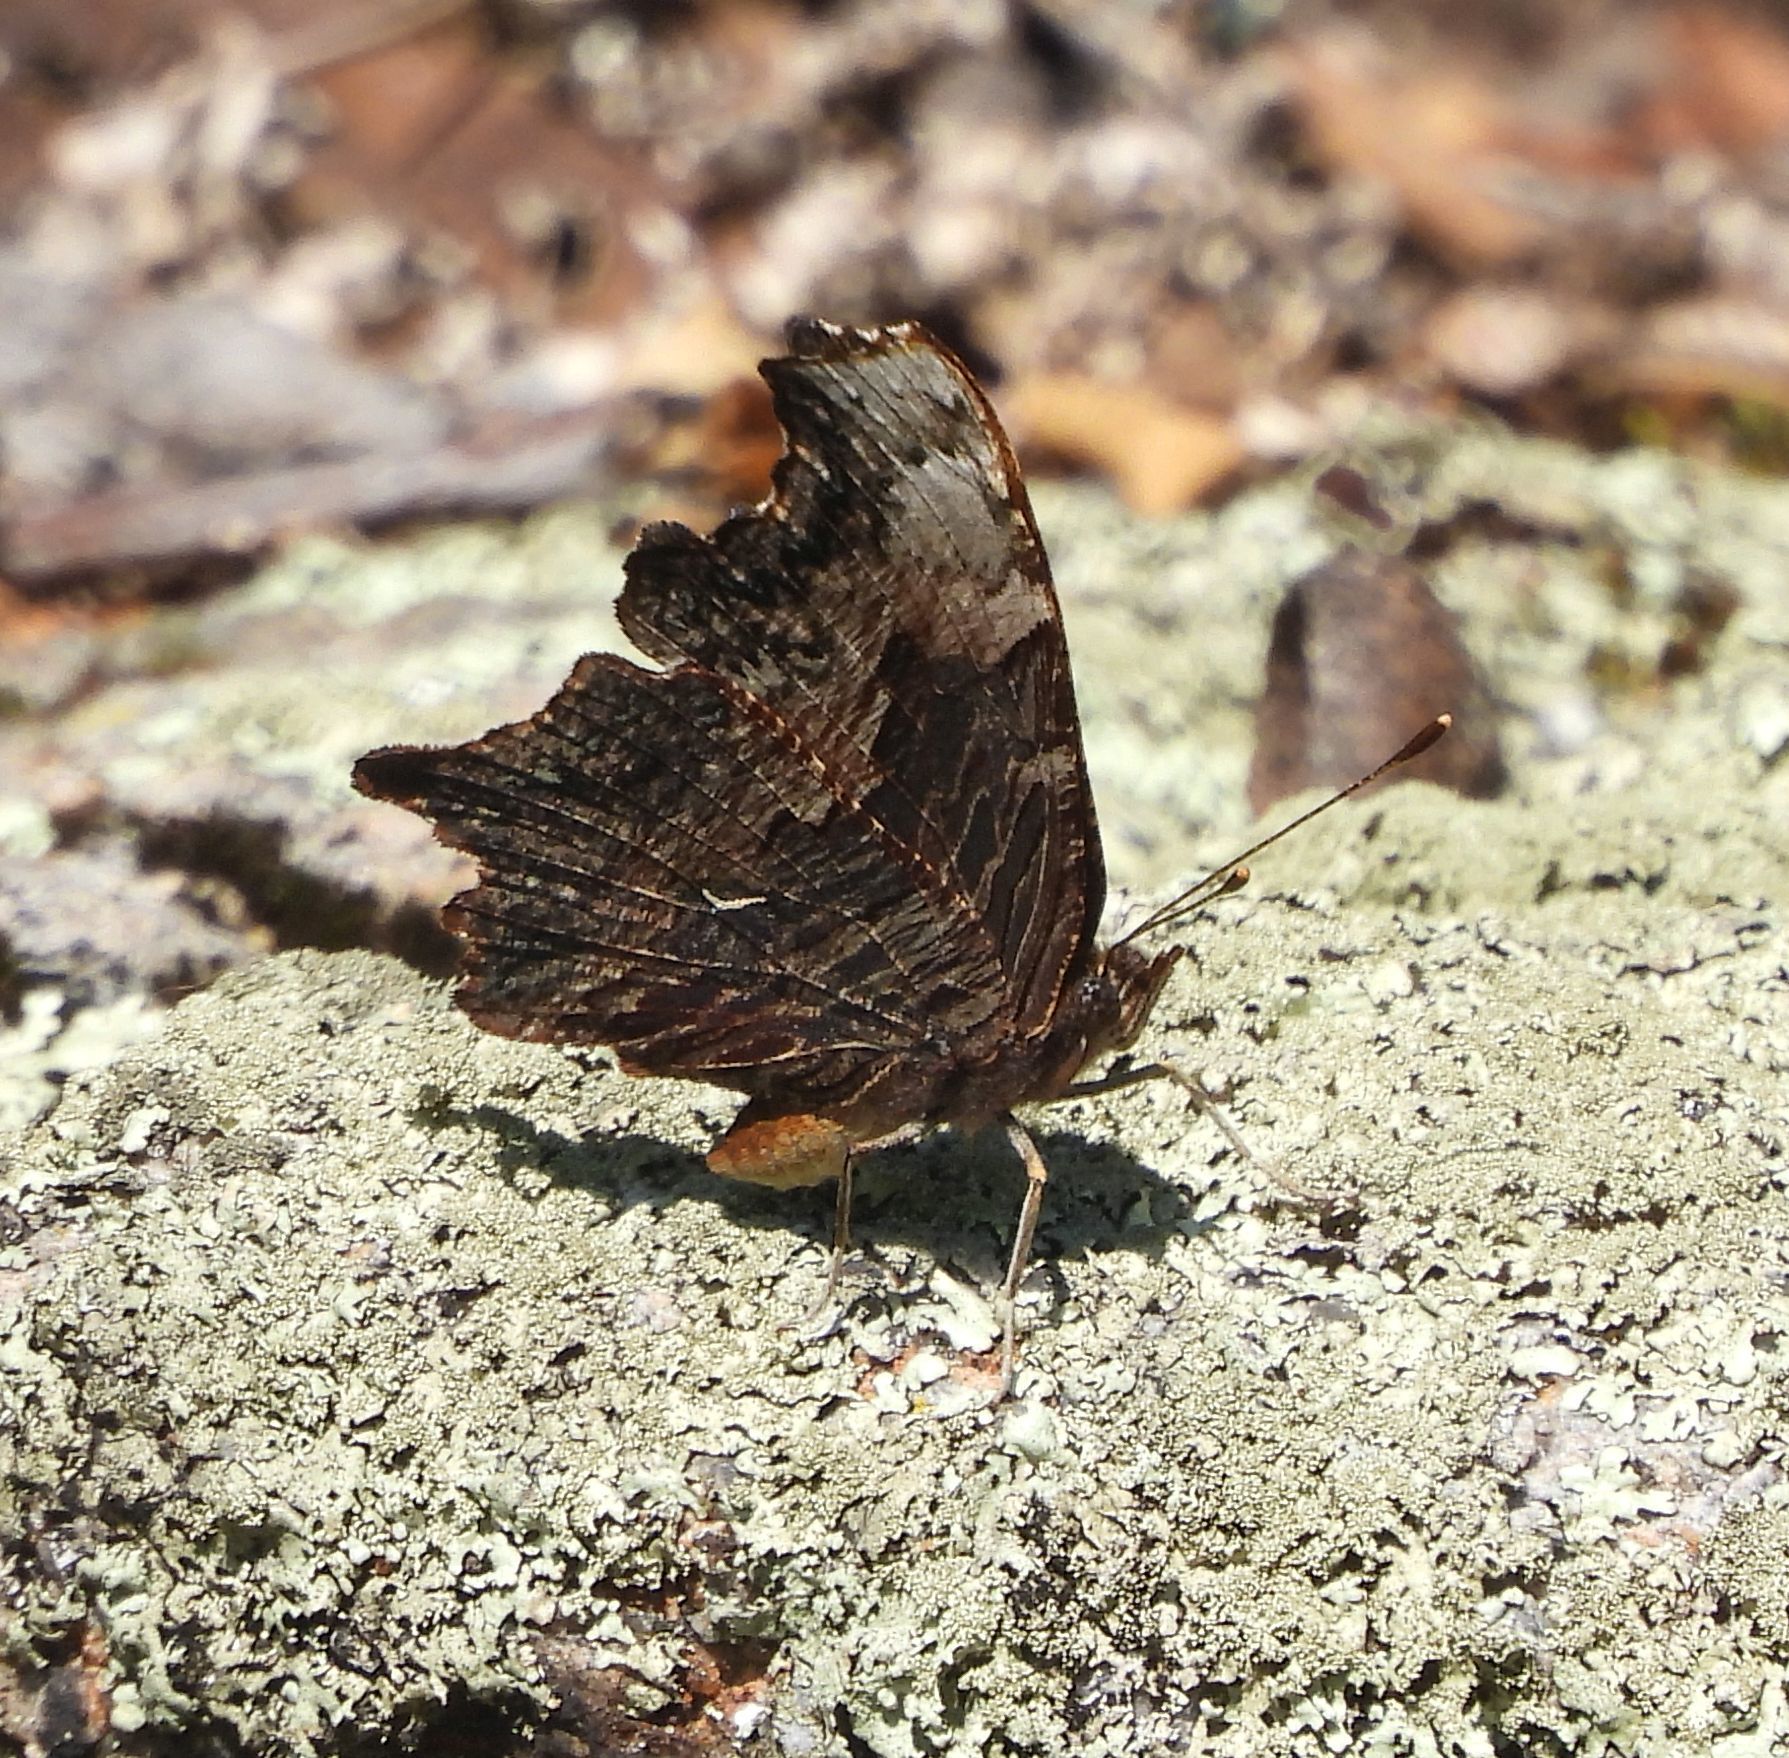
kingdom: Animalia
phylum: Arthropoda
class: Insecta
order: Lepidoptera
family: Nymphalidae
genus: Polygonia
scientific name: Polygonia progne
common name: Gray comma
